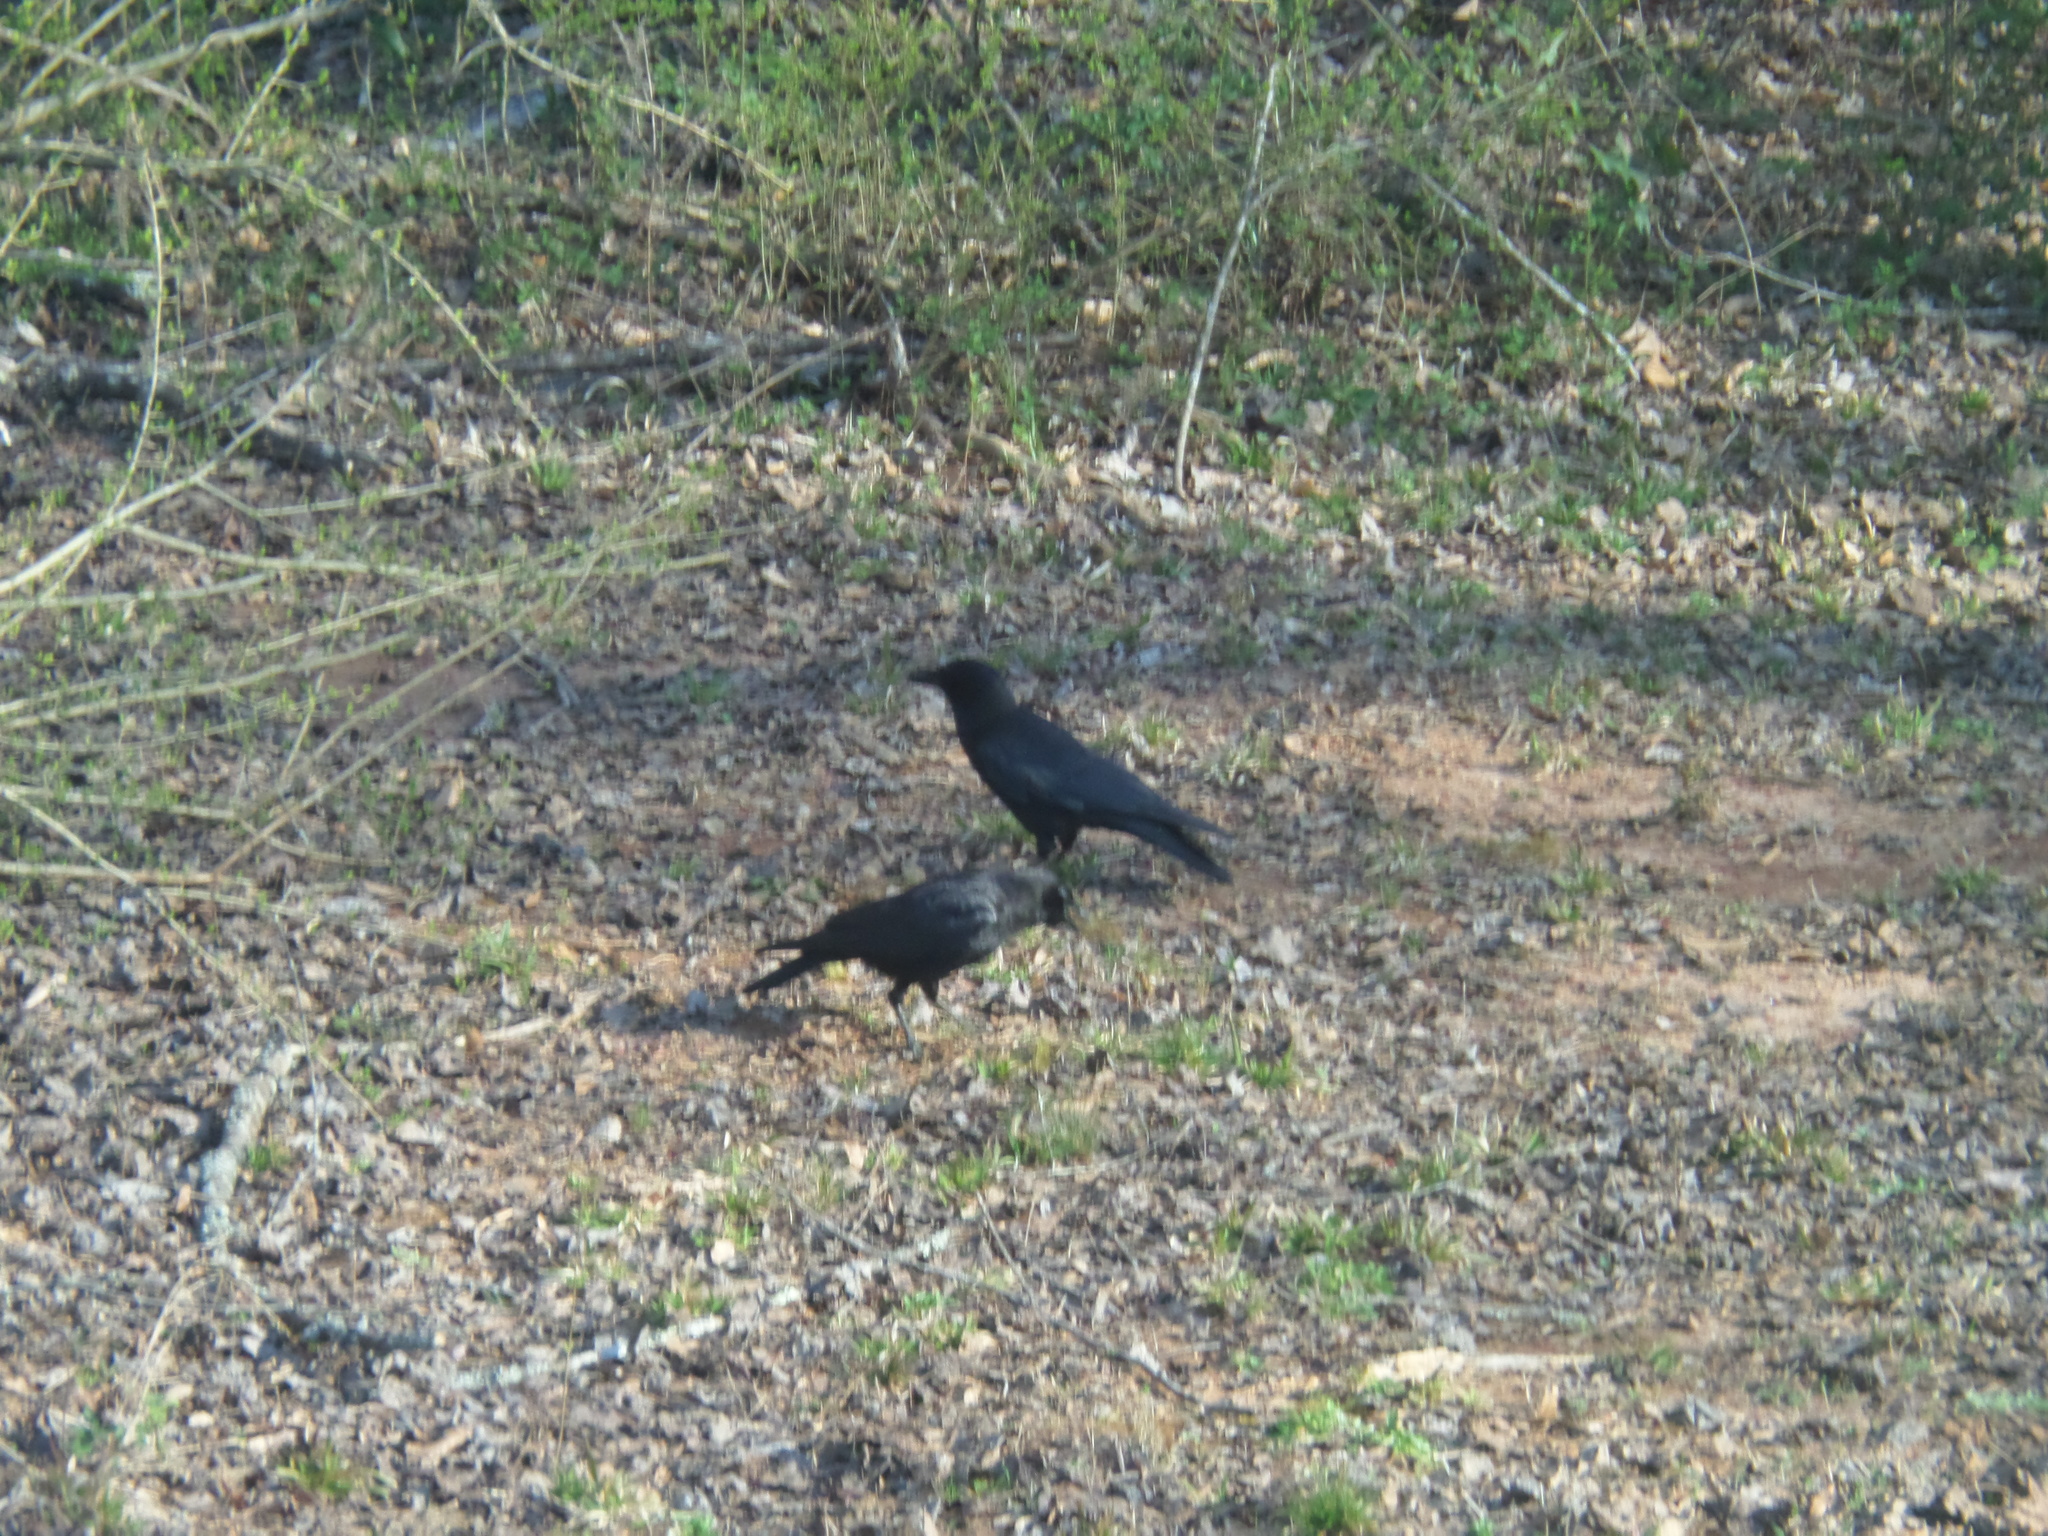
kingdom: Animalia
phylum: Chordata
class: Aves
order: Passeriformes
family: Corvidae
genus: Corvus
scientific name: Corvus brachyrhynchos
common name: American crow
